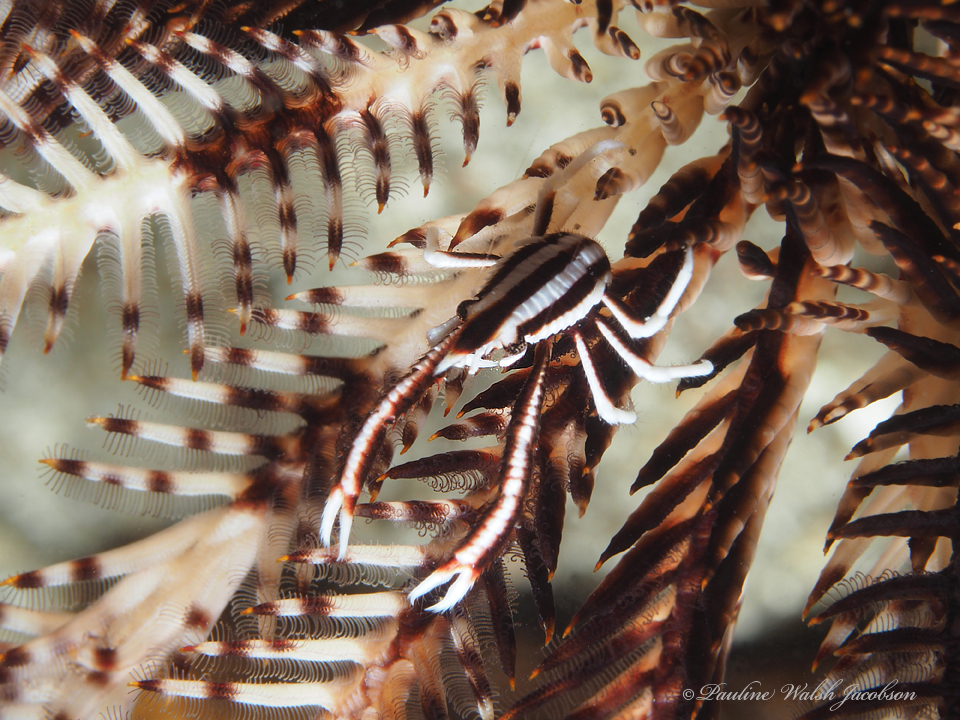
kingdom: Animalia
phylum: Arthropoda
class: Malacostraca
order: Decapoda
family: Galatheidae
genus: Allogalathea
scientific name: Allogalathea elegans
